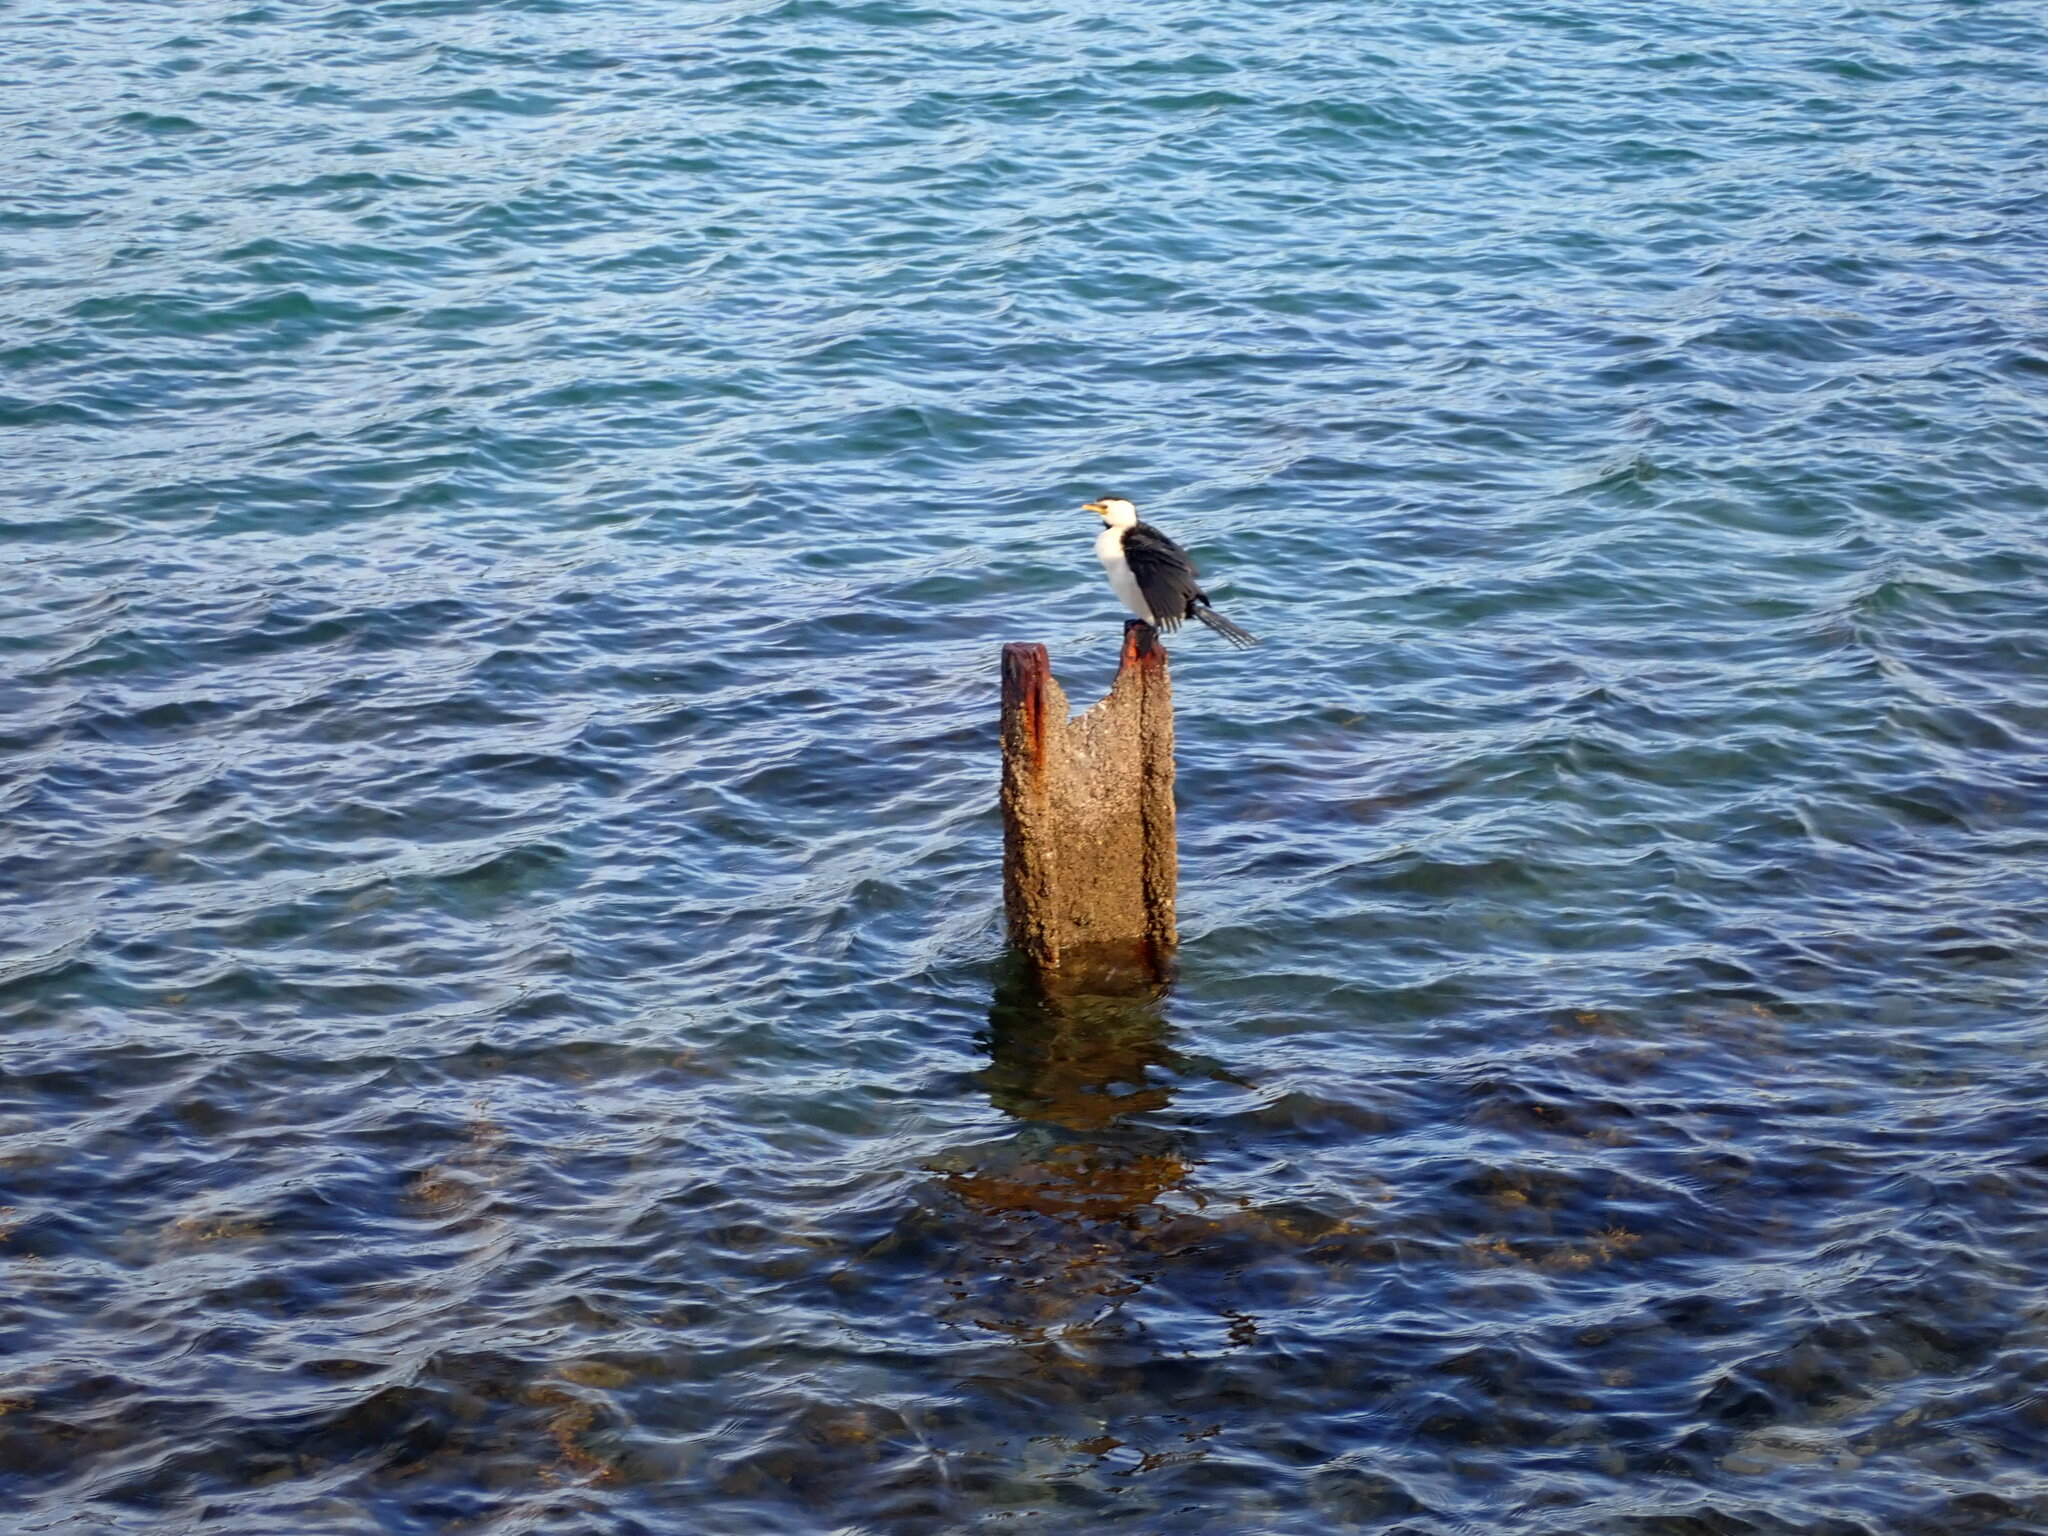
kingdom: Animalia
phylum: Chordata
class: Aves
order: Suliformes
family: Phalacrocoracidae
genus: Microcarbo
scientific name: Microcarbo melanoleucos
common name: Little pied cormorant
